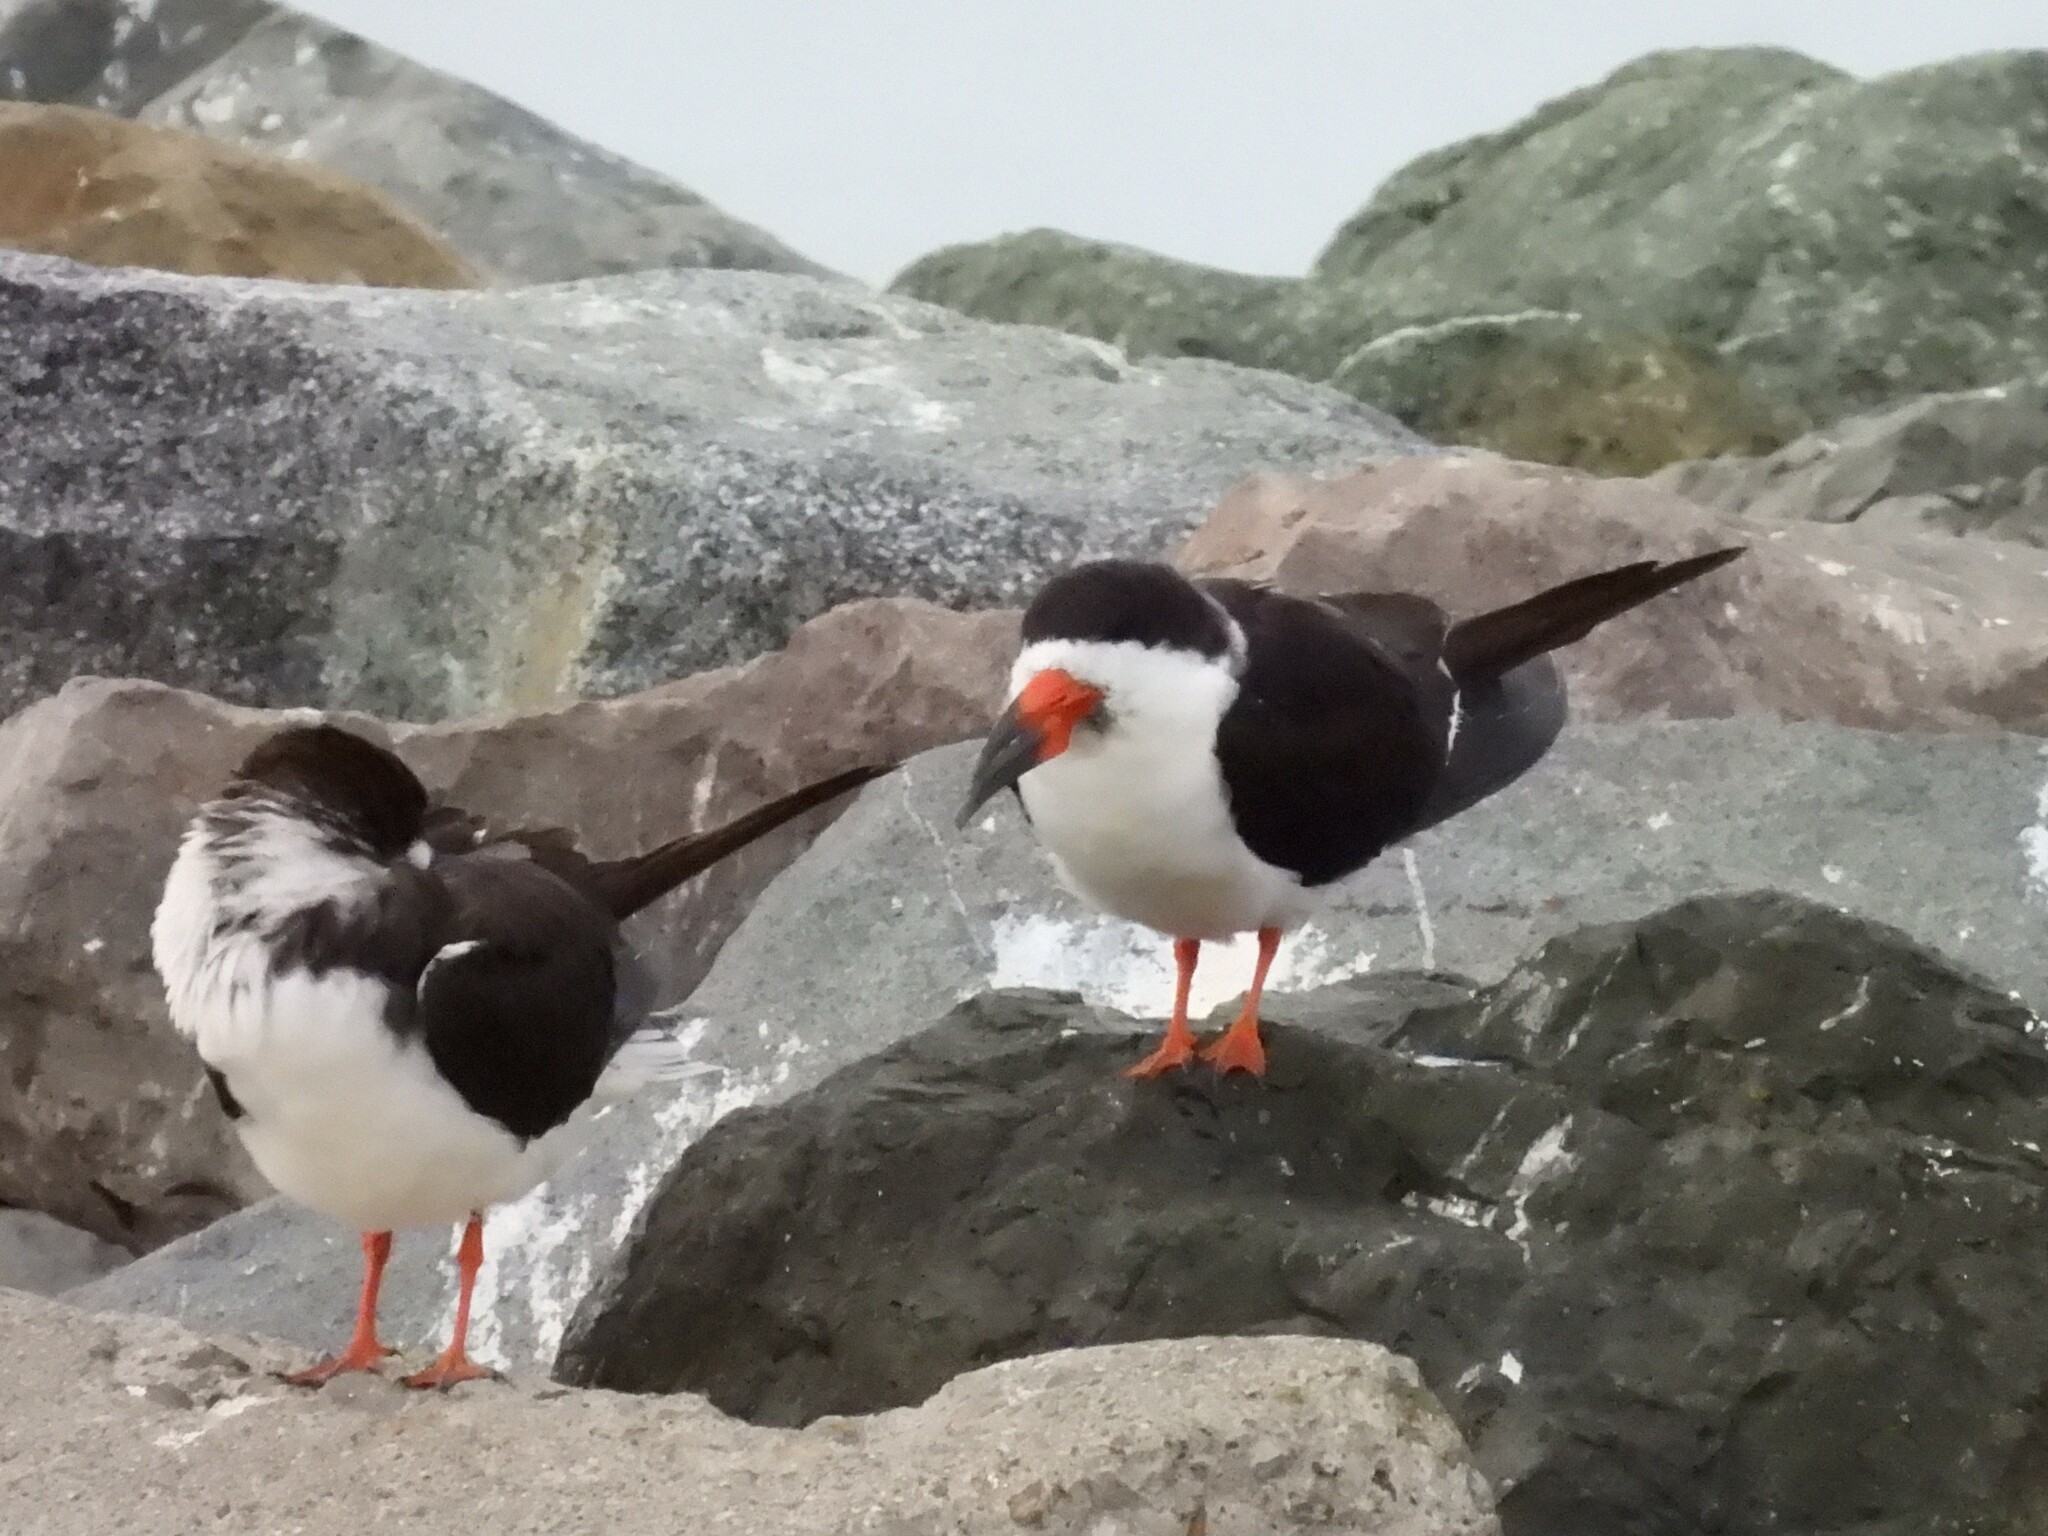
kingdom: Animalia
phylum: Chordata
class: Aves
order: Charadriiformes
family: Laridae
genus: Rynchops
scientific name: Rynchops niger
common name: Black skimmer
